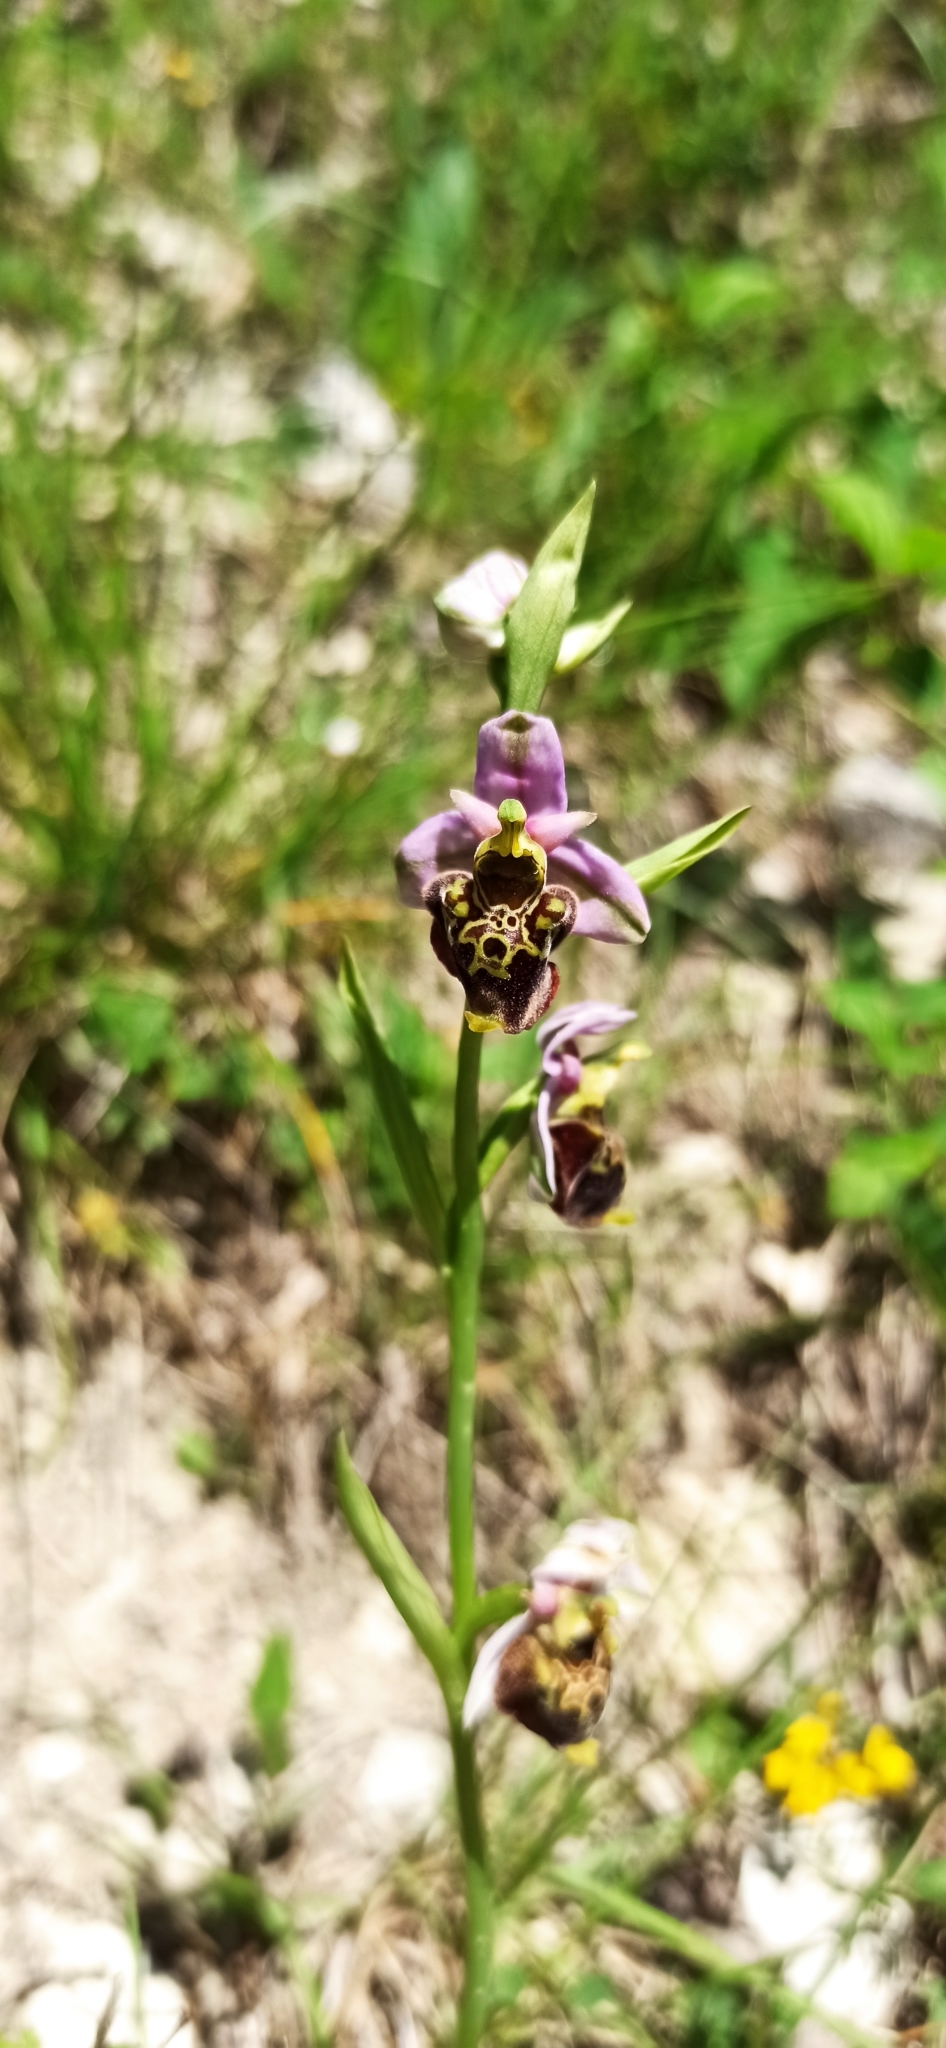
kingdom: Plantae
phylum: Tracheophyta
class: Liliopsida
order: Asparagales
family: Orchidaceae
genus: Ophrys
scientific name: Ophrys holosericea
